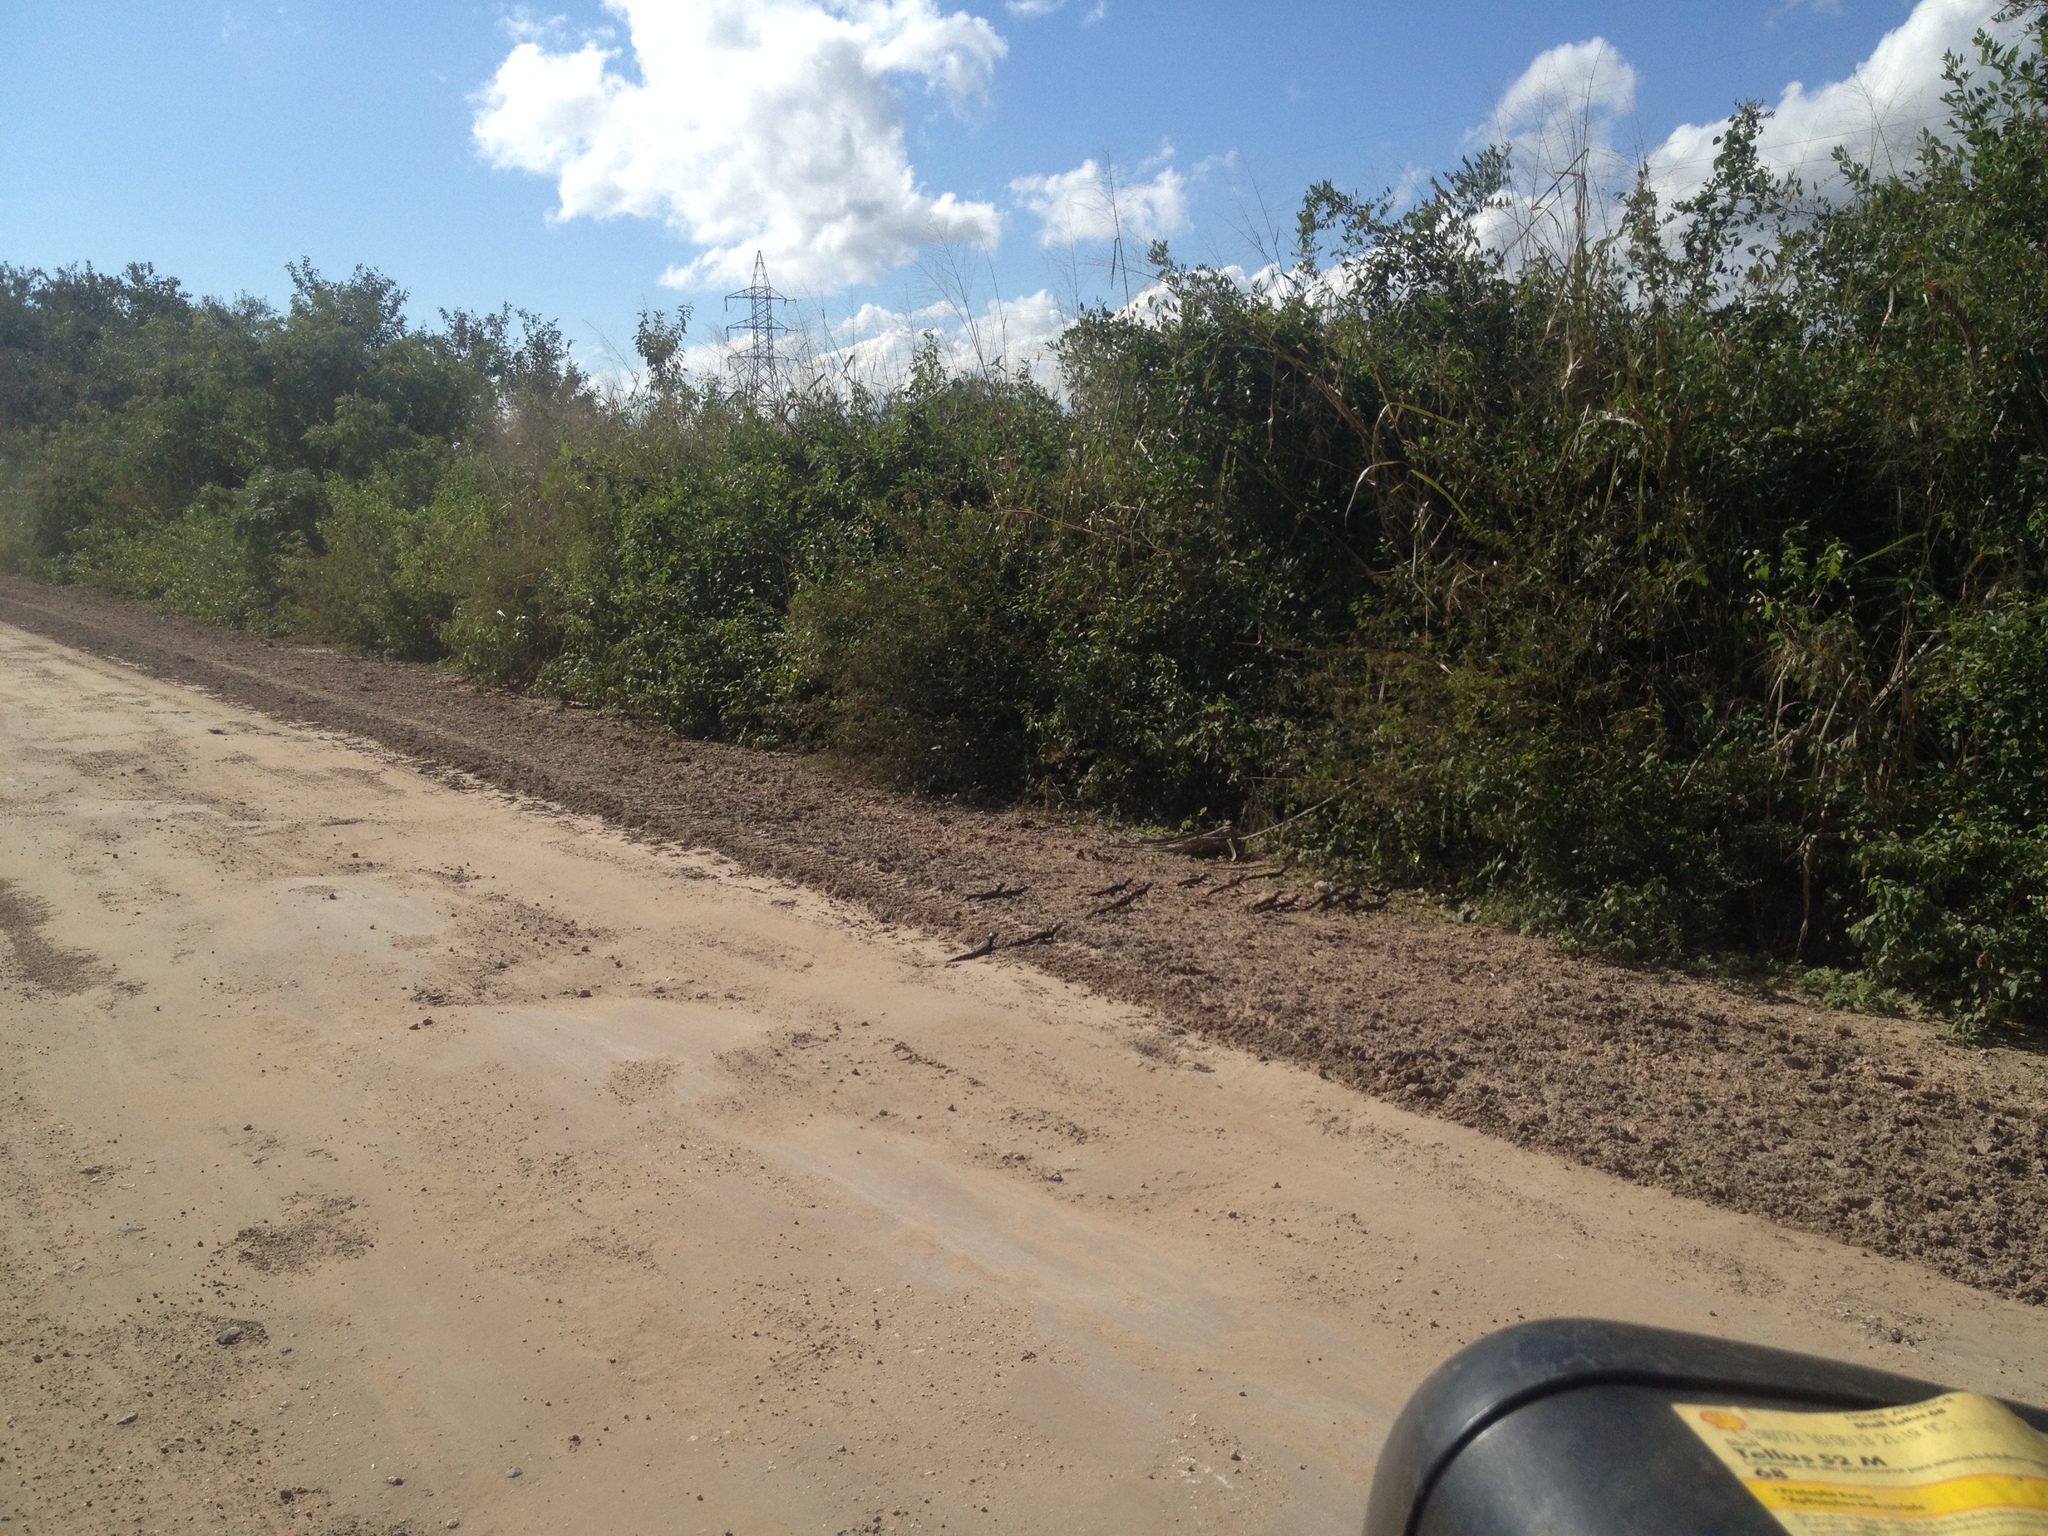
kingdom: Animalia
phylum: Chordata
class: Crocodylia
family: Alligatoridae
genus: Caiman
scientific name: Caiman yacare
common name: Yacare caiman
